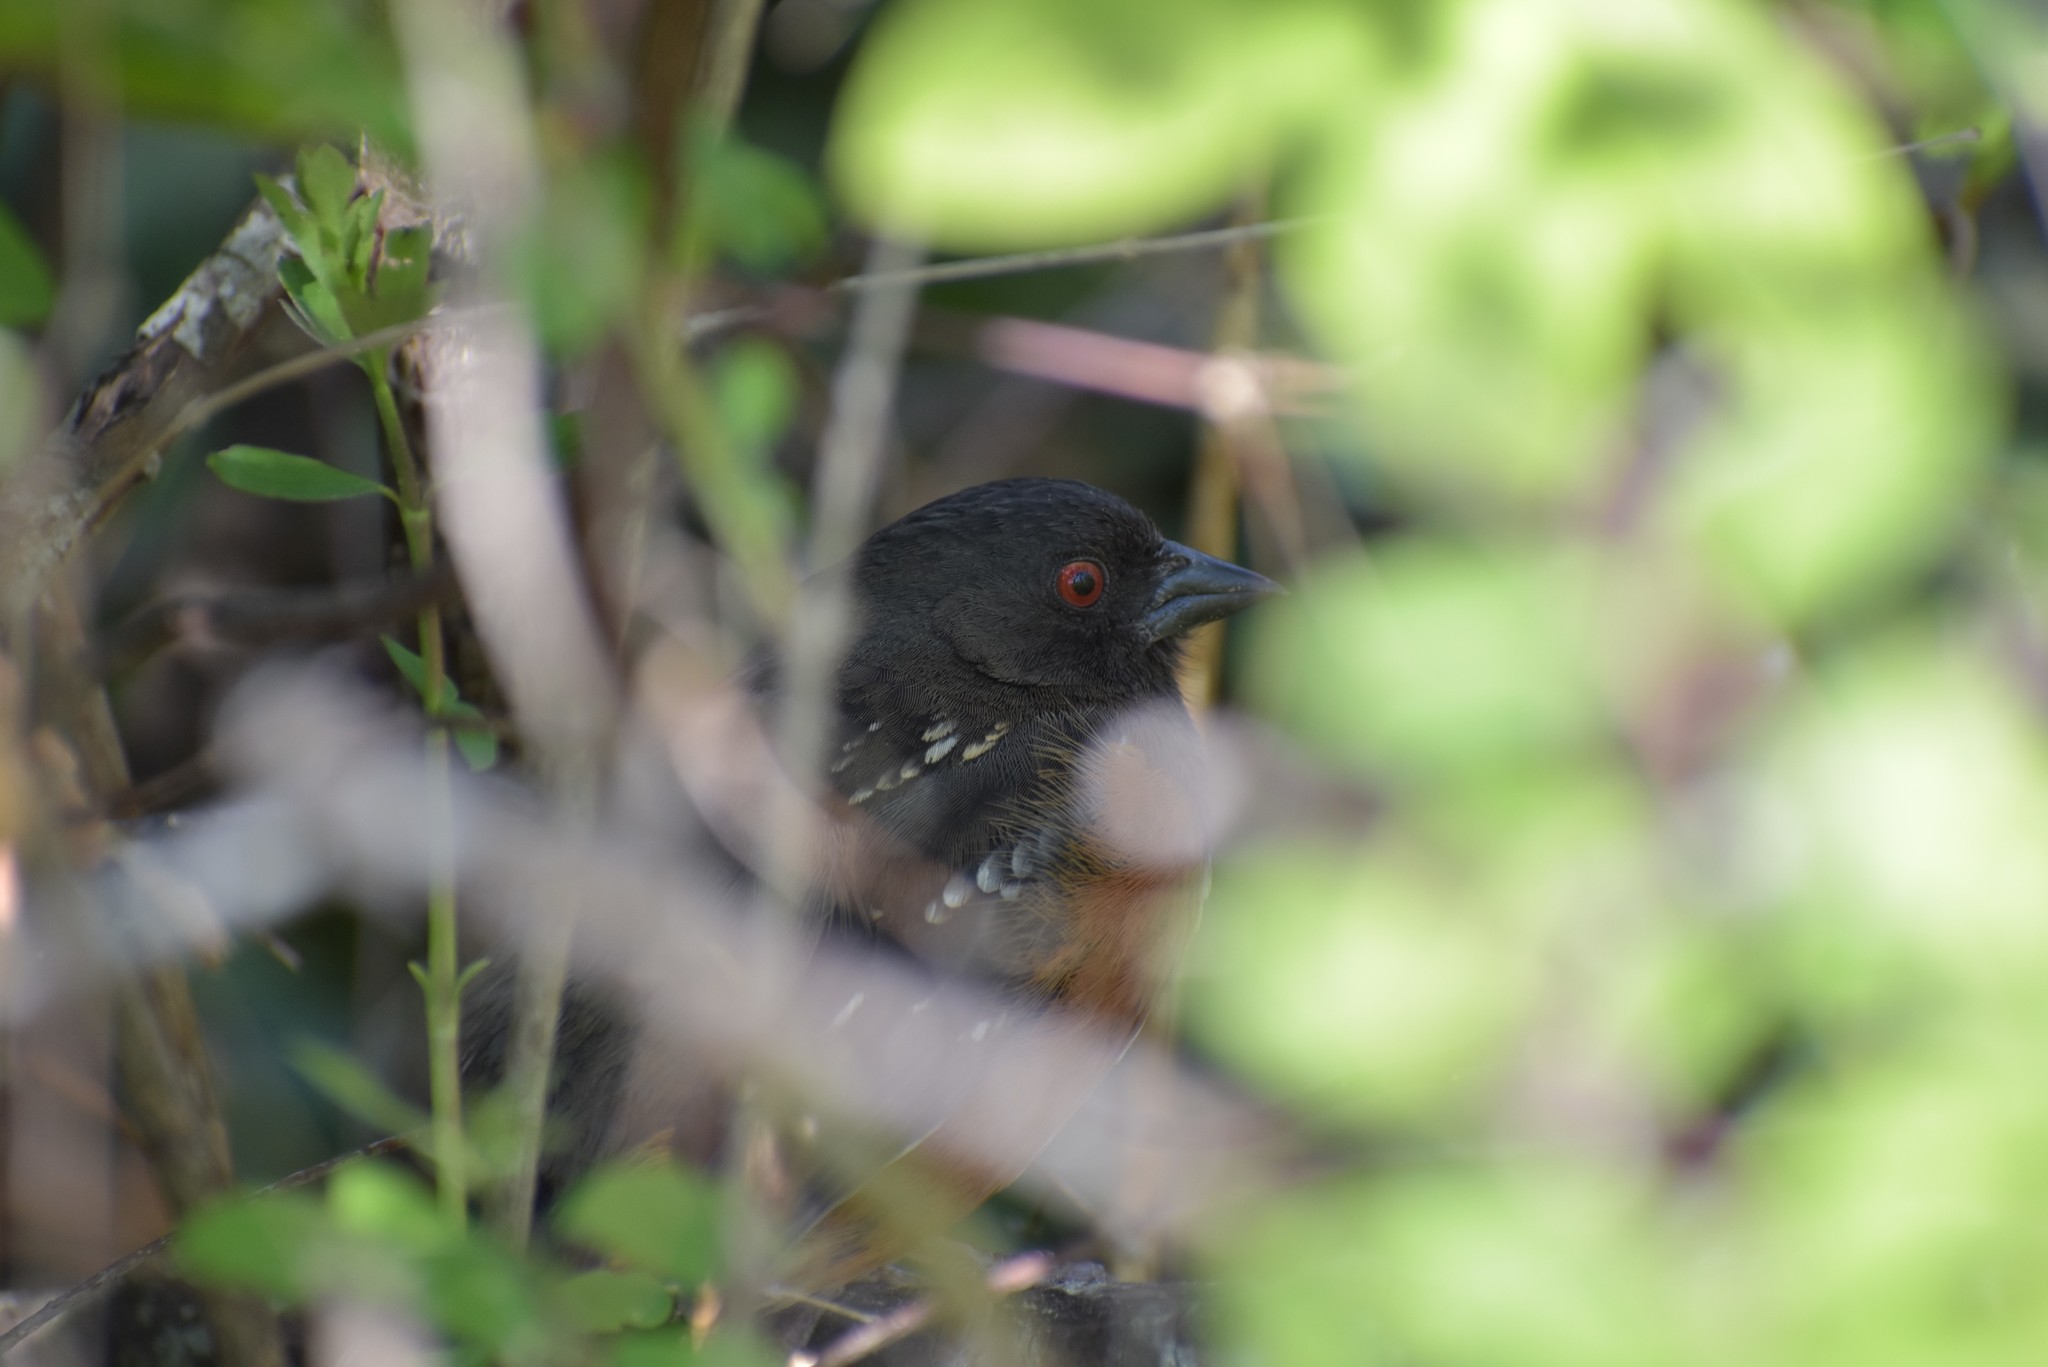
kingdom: Animalia
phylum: Chordata
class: Aves
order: Passeriformes
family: Passerellidae
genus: Pipilo
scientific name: Pipilo maculatus
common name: Spotted towhee
